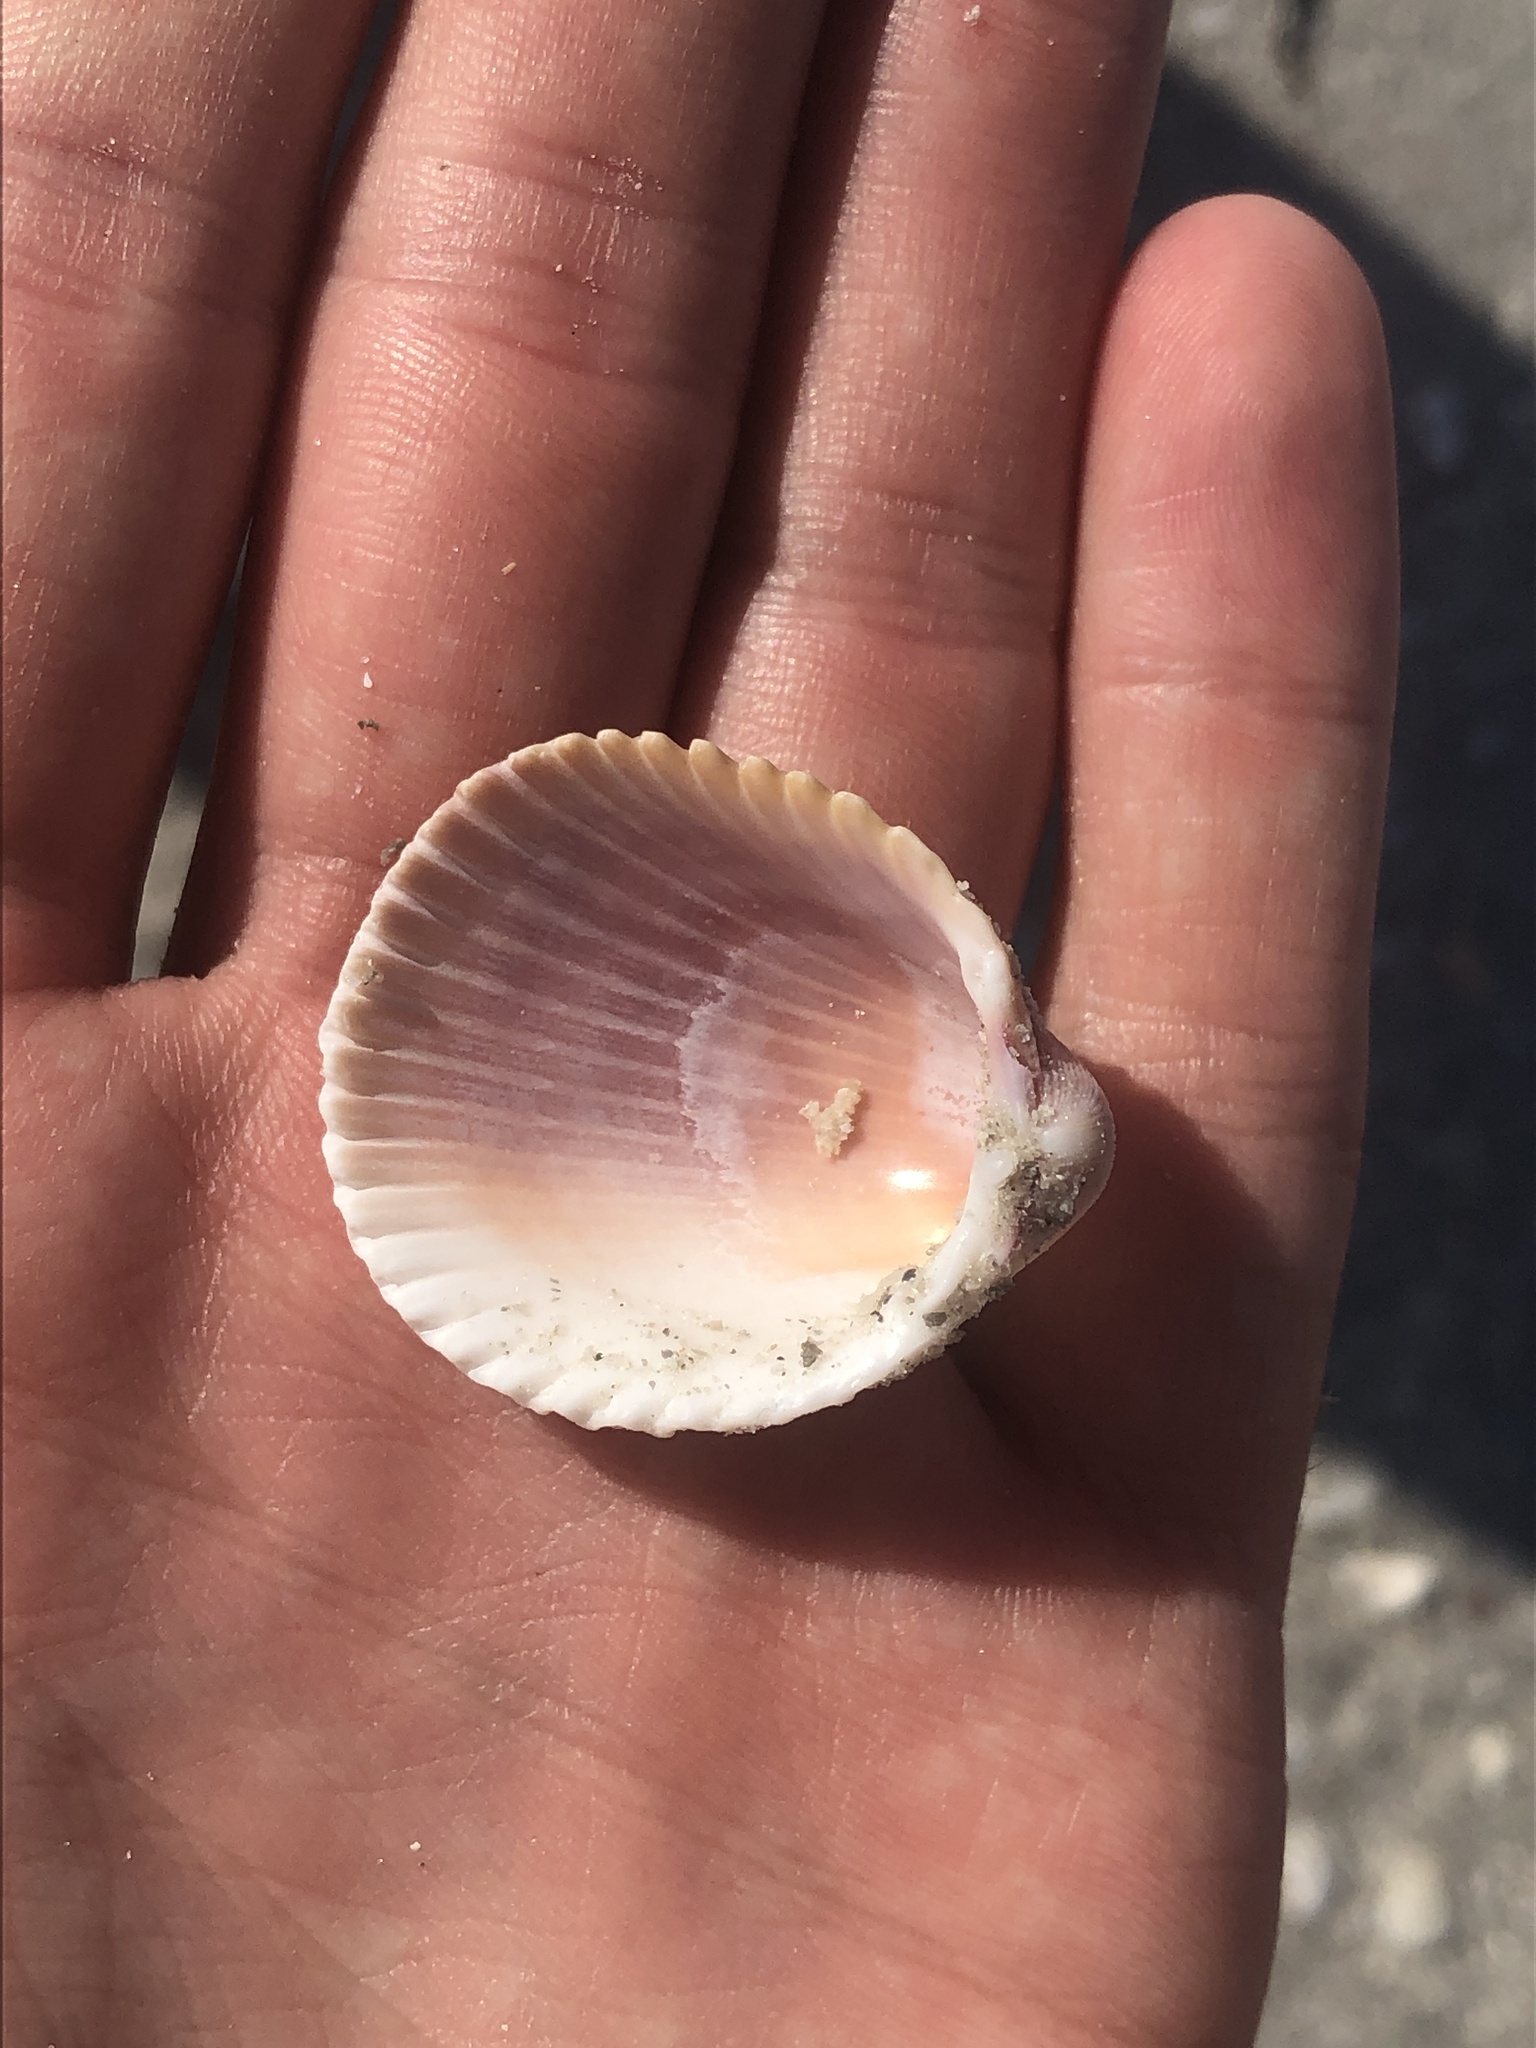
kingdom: Animalia
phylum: Mollusca
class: Bivalvia
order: Cardiida
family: Cardiidae
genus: Trachycardium
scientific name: Trachycardium egmontianum
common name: Florida pricklycockle
